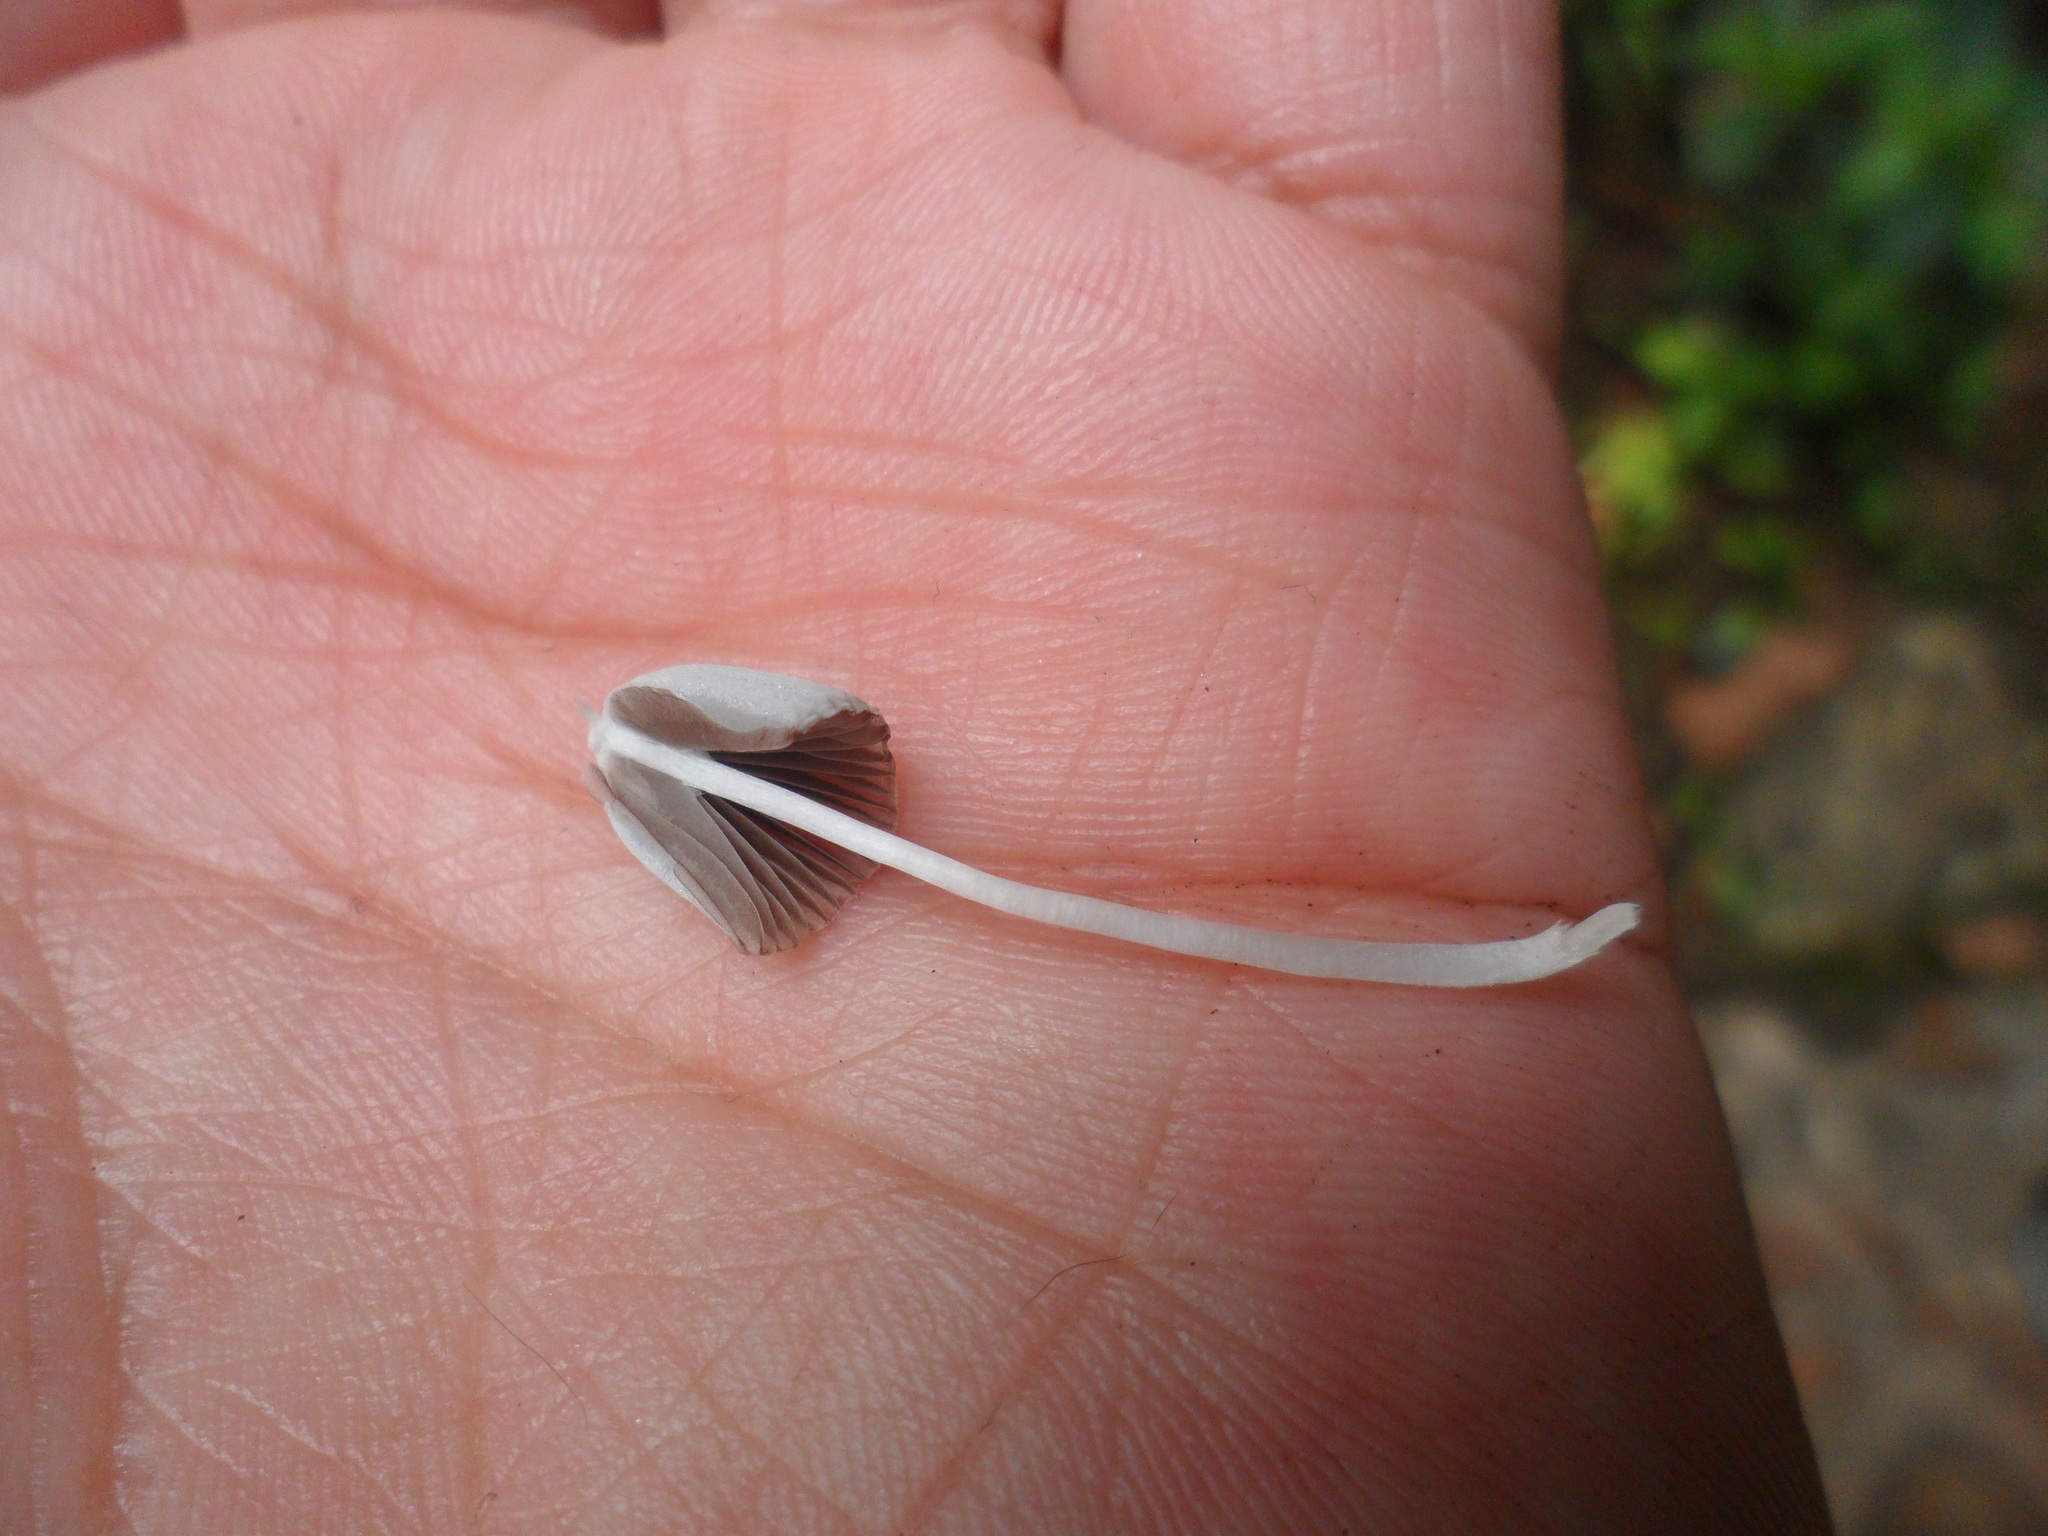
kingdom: Fungi
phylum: Basidiomycota
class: Agaricomycetes
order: Agaricales
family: Psathyrellaceae
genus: Coprinellus
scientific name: Coprinellus disseminatus
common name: Fairies' bonnets
